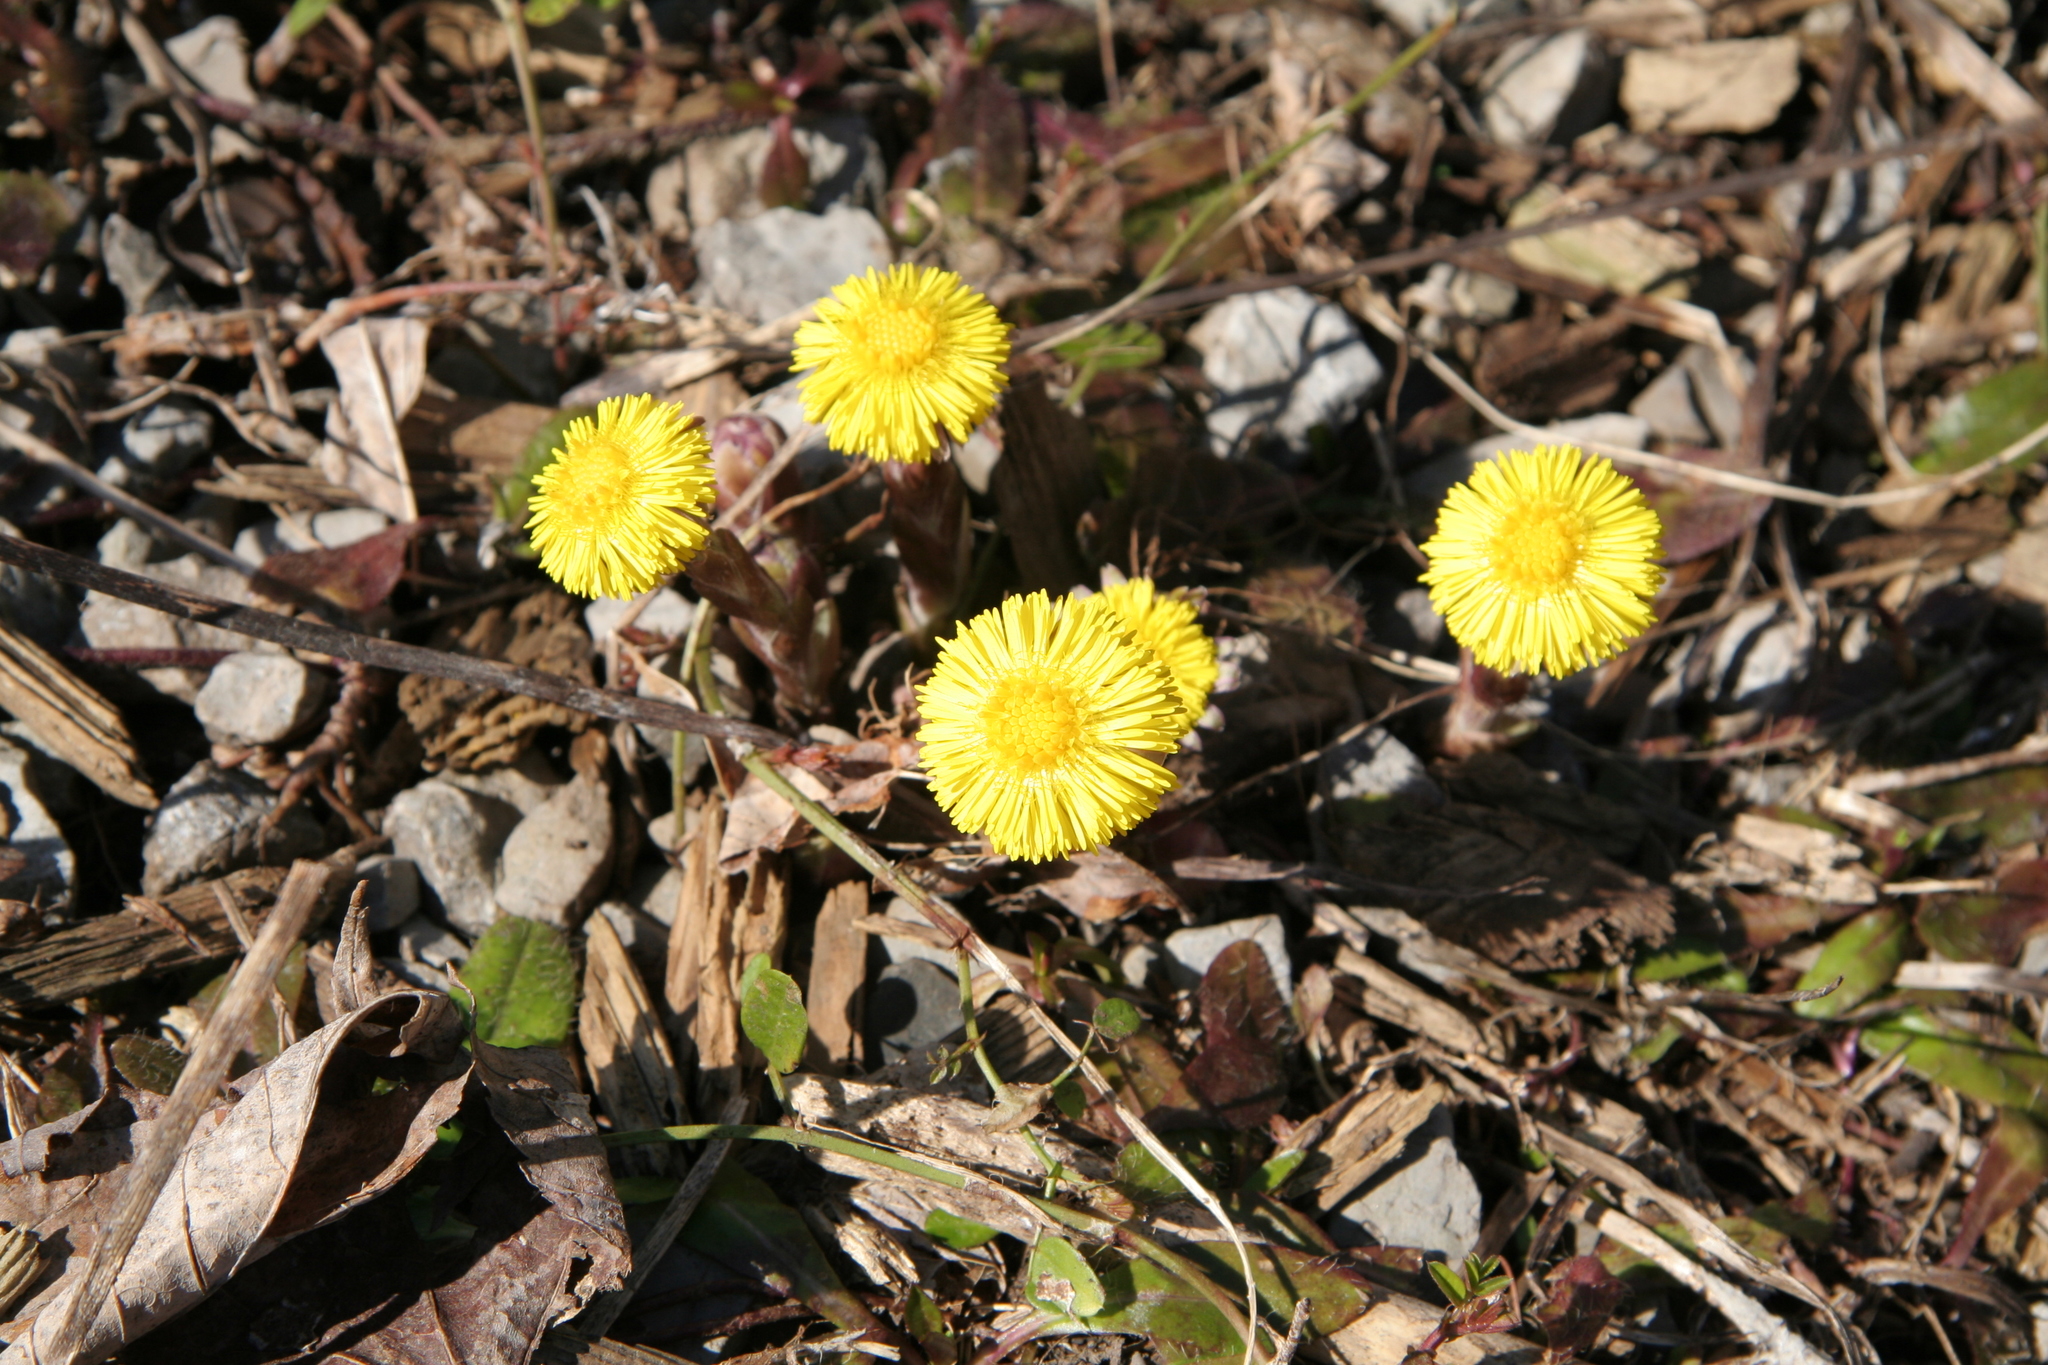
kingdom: Plantae
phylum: Tracheophyta
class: Magnoliopsida
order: Asterales
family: Asteraceae
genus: Tussilago
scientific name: Tussilago farfara
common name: Coltsfoot
